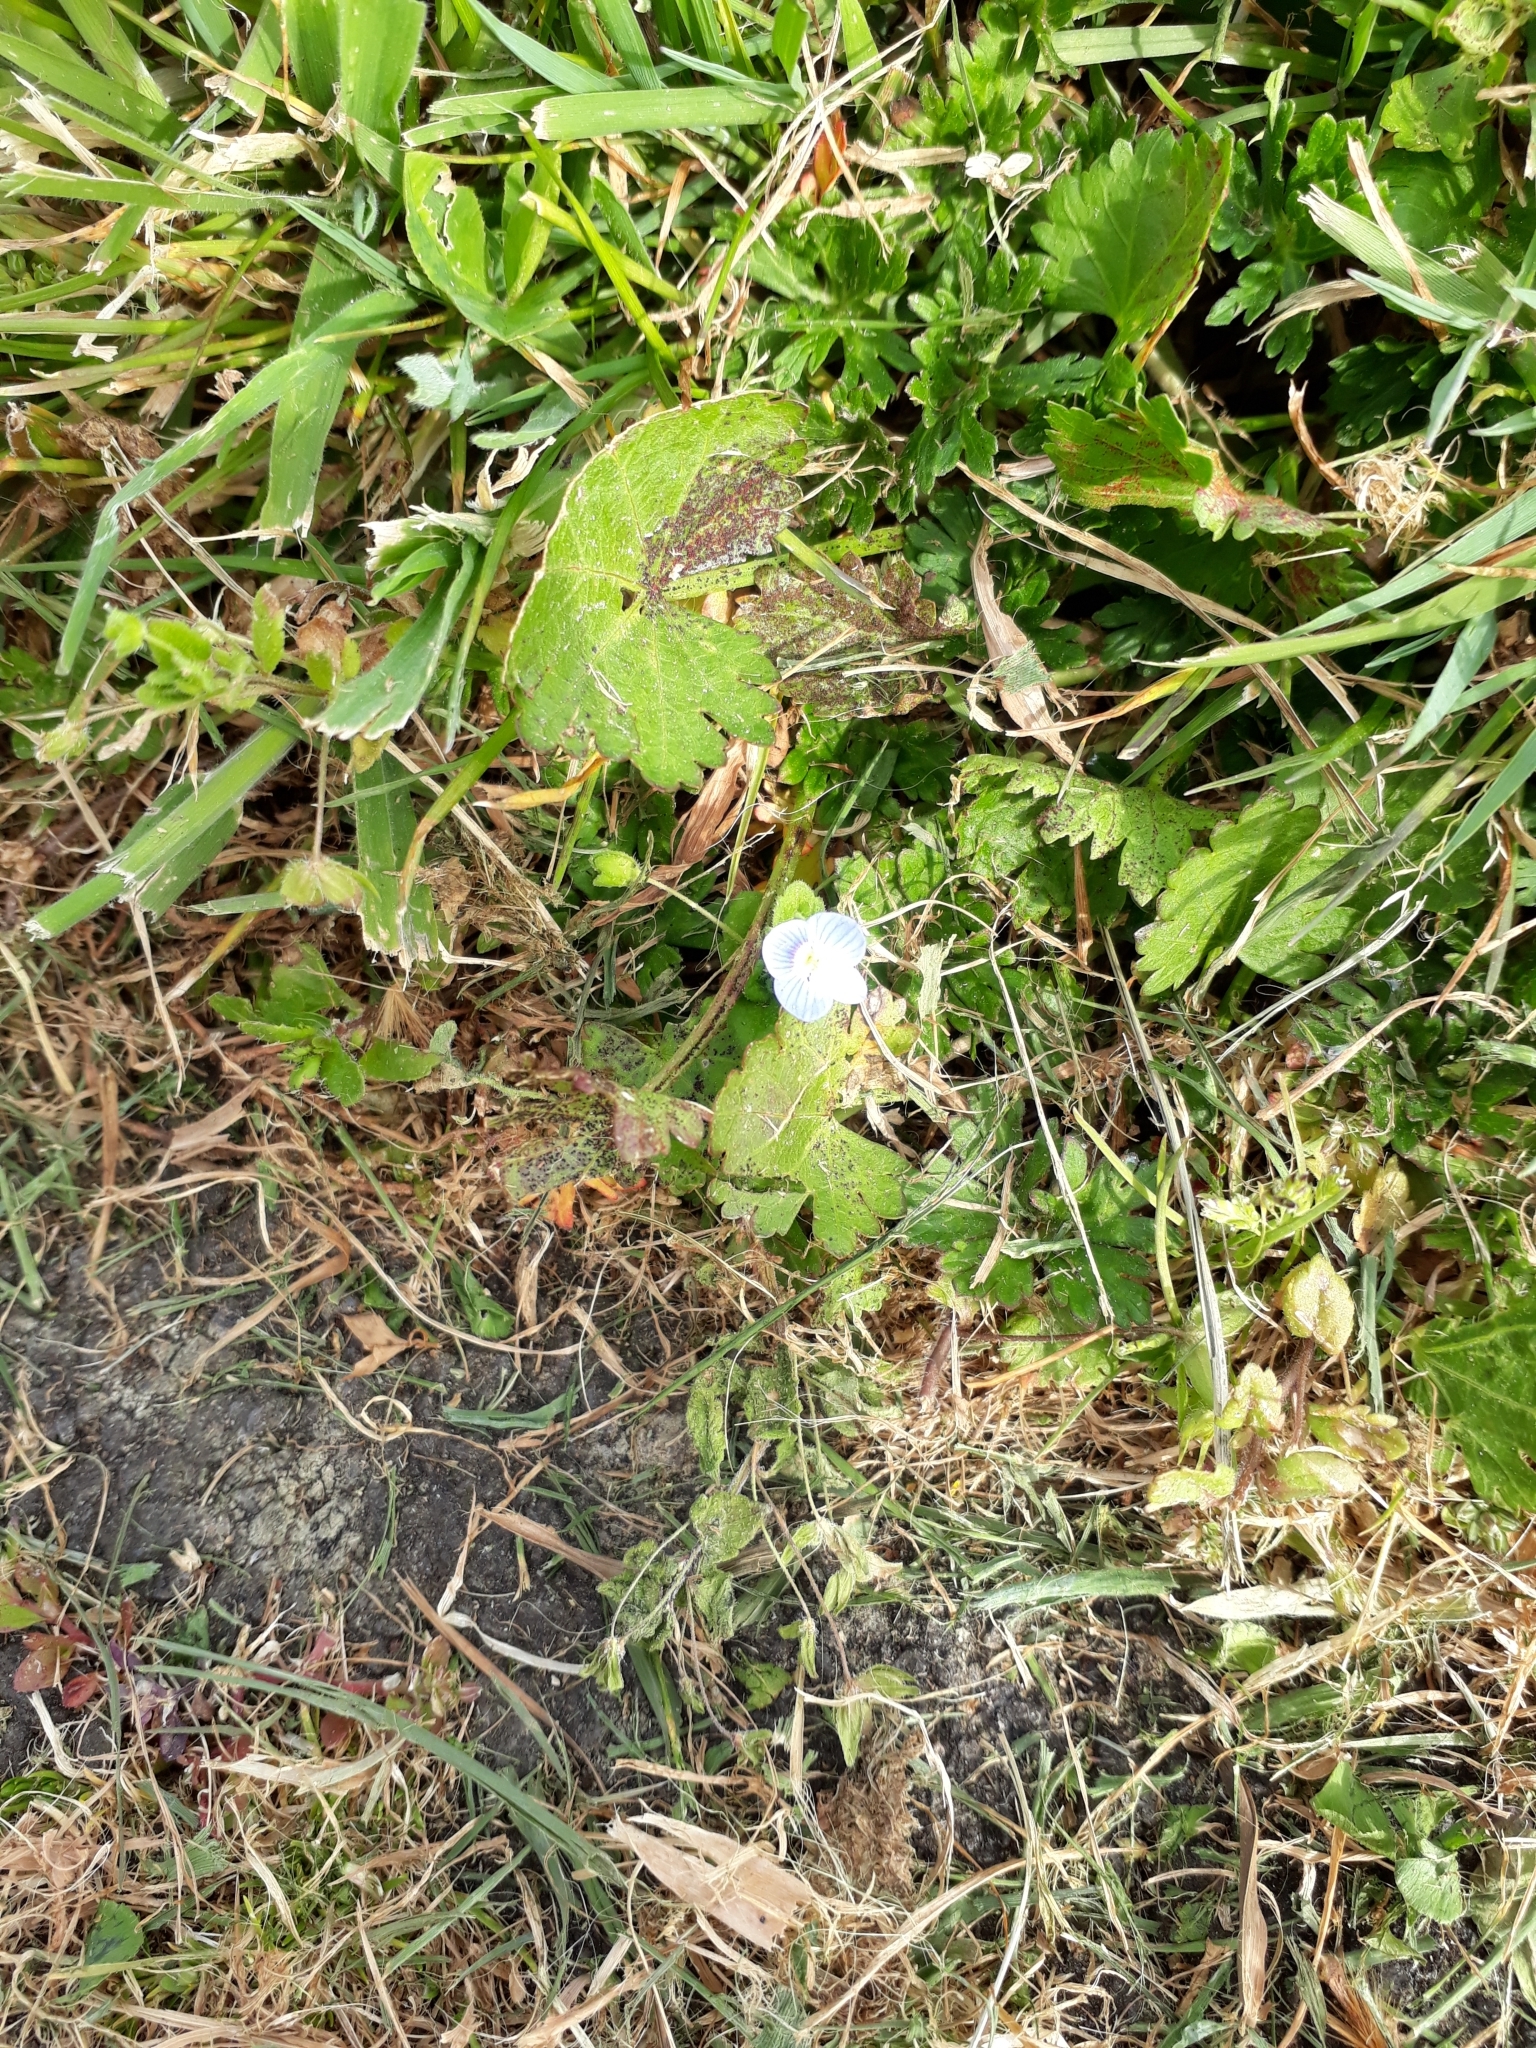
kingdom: Plantae
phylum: Tracheophyta
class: Magnoliopsida
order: Lamiales
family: Plantaginaceae
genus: Veronica
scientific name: Veronica persica
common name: Common field-speedwell
